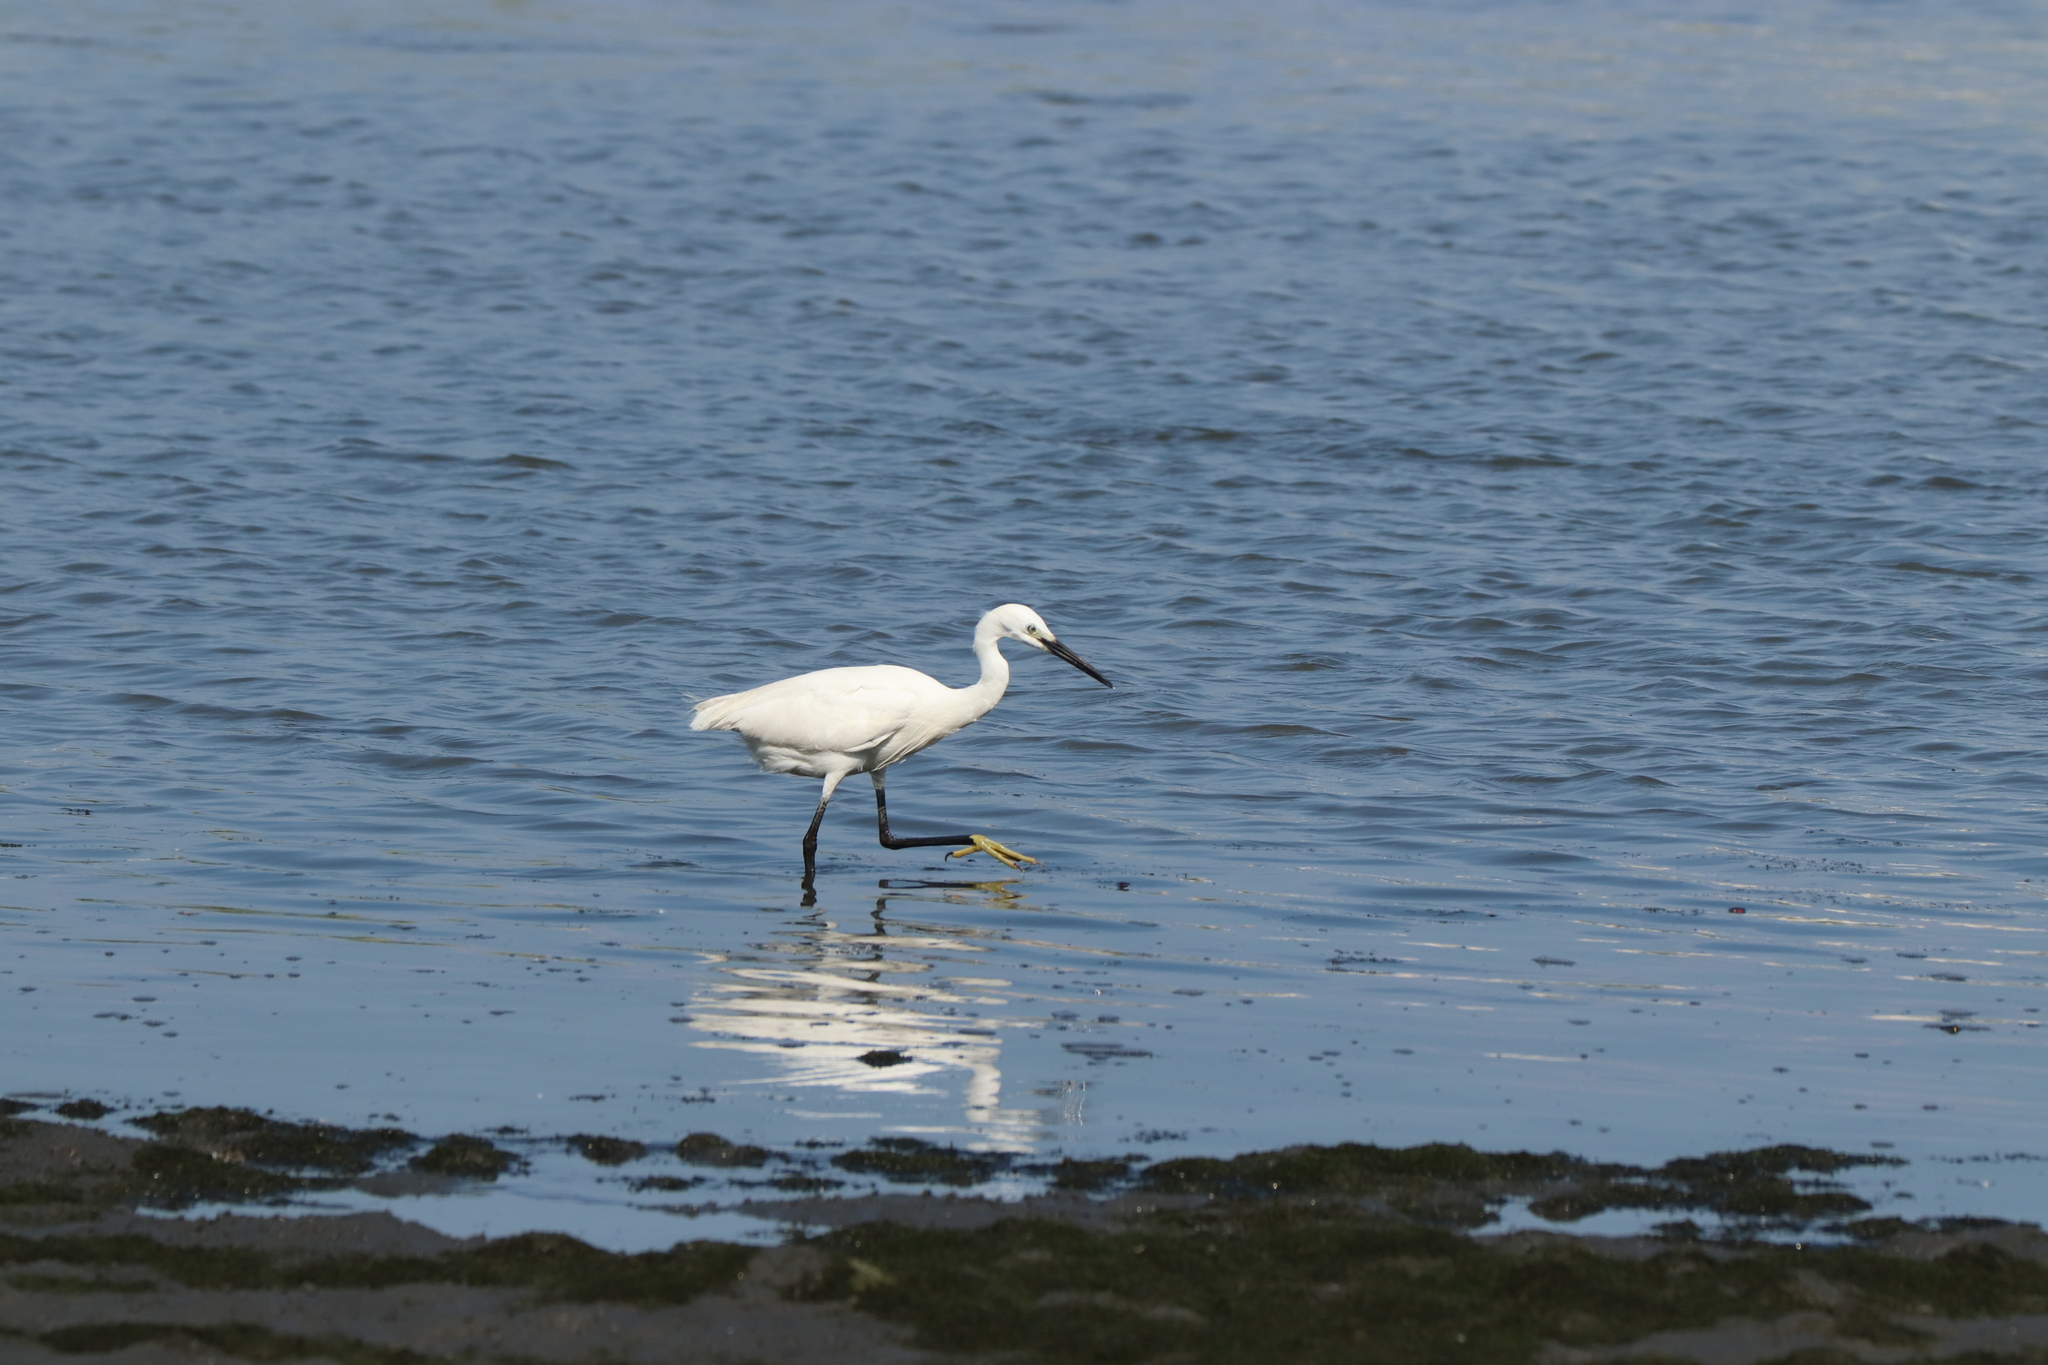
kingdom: Animalia
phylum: Chordata
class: Aves
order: Pelecaniformes
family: Ardeidae
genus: Egretta
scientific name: Egretta garzetta
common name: Little egret
